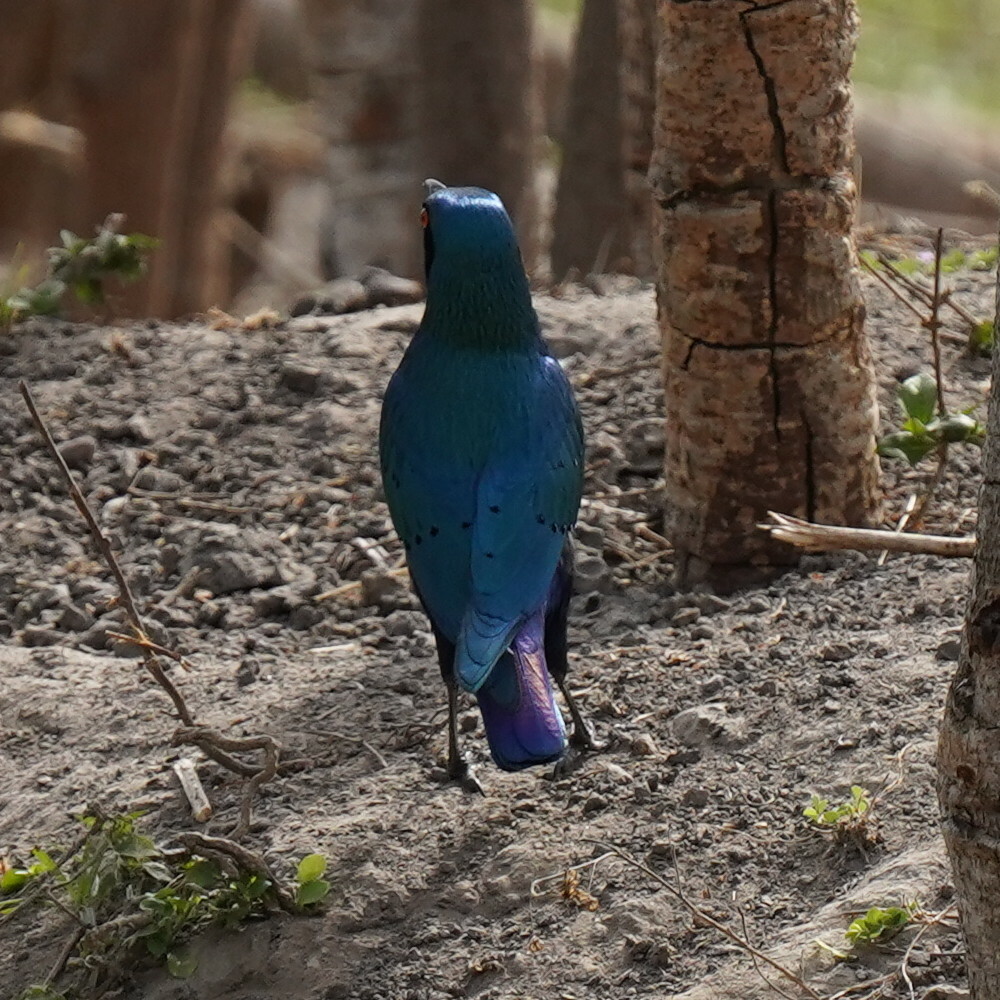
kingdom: Animalia
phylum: Chordata
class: Aves
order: Passeriformes
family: Sturnidae
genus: Lamprotornis
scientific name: Lamprotornis chalcurus
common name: Bronze-tailed starling
